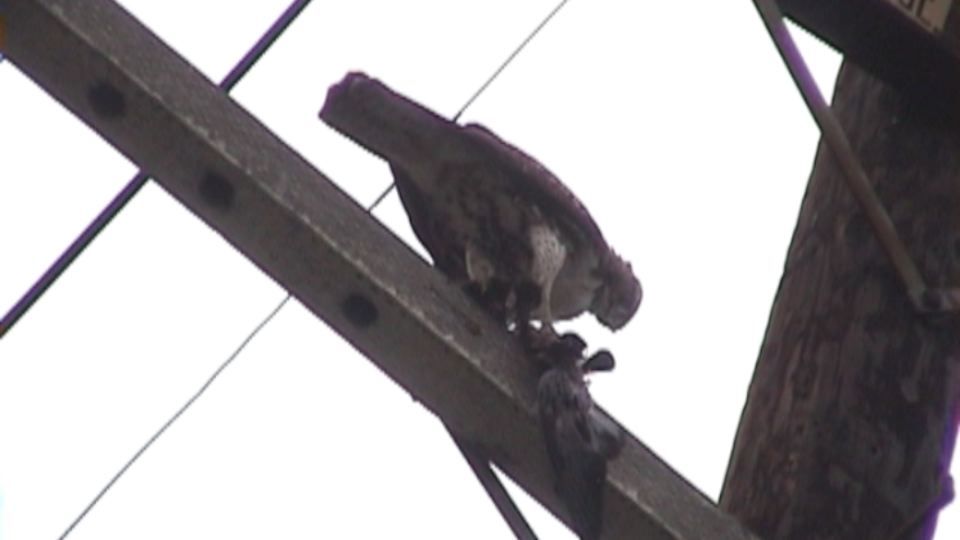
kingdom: Animalia
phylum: Chordata
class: Aves
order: Accipitriformes
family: Accipitridae
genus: Buteo
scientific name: Buteo jamaicensis
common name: Red-tailed hawk
